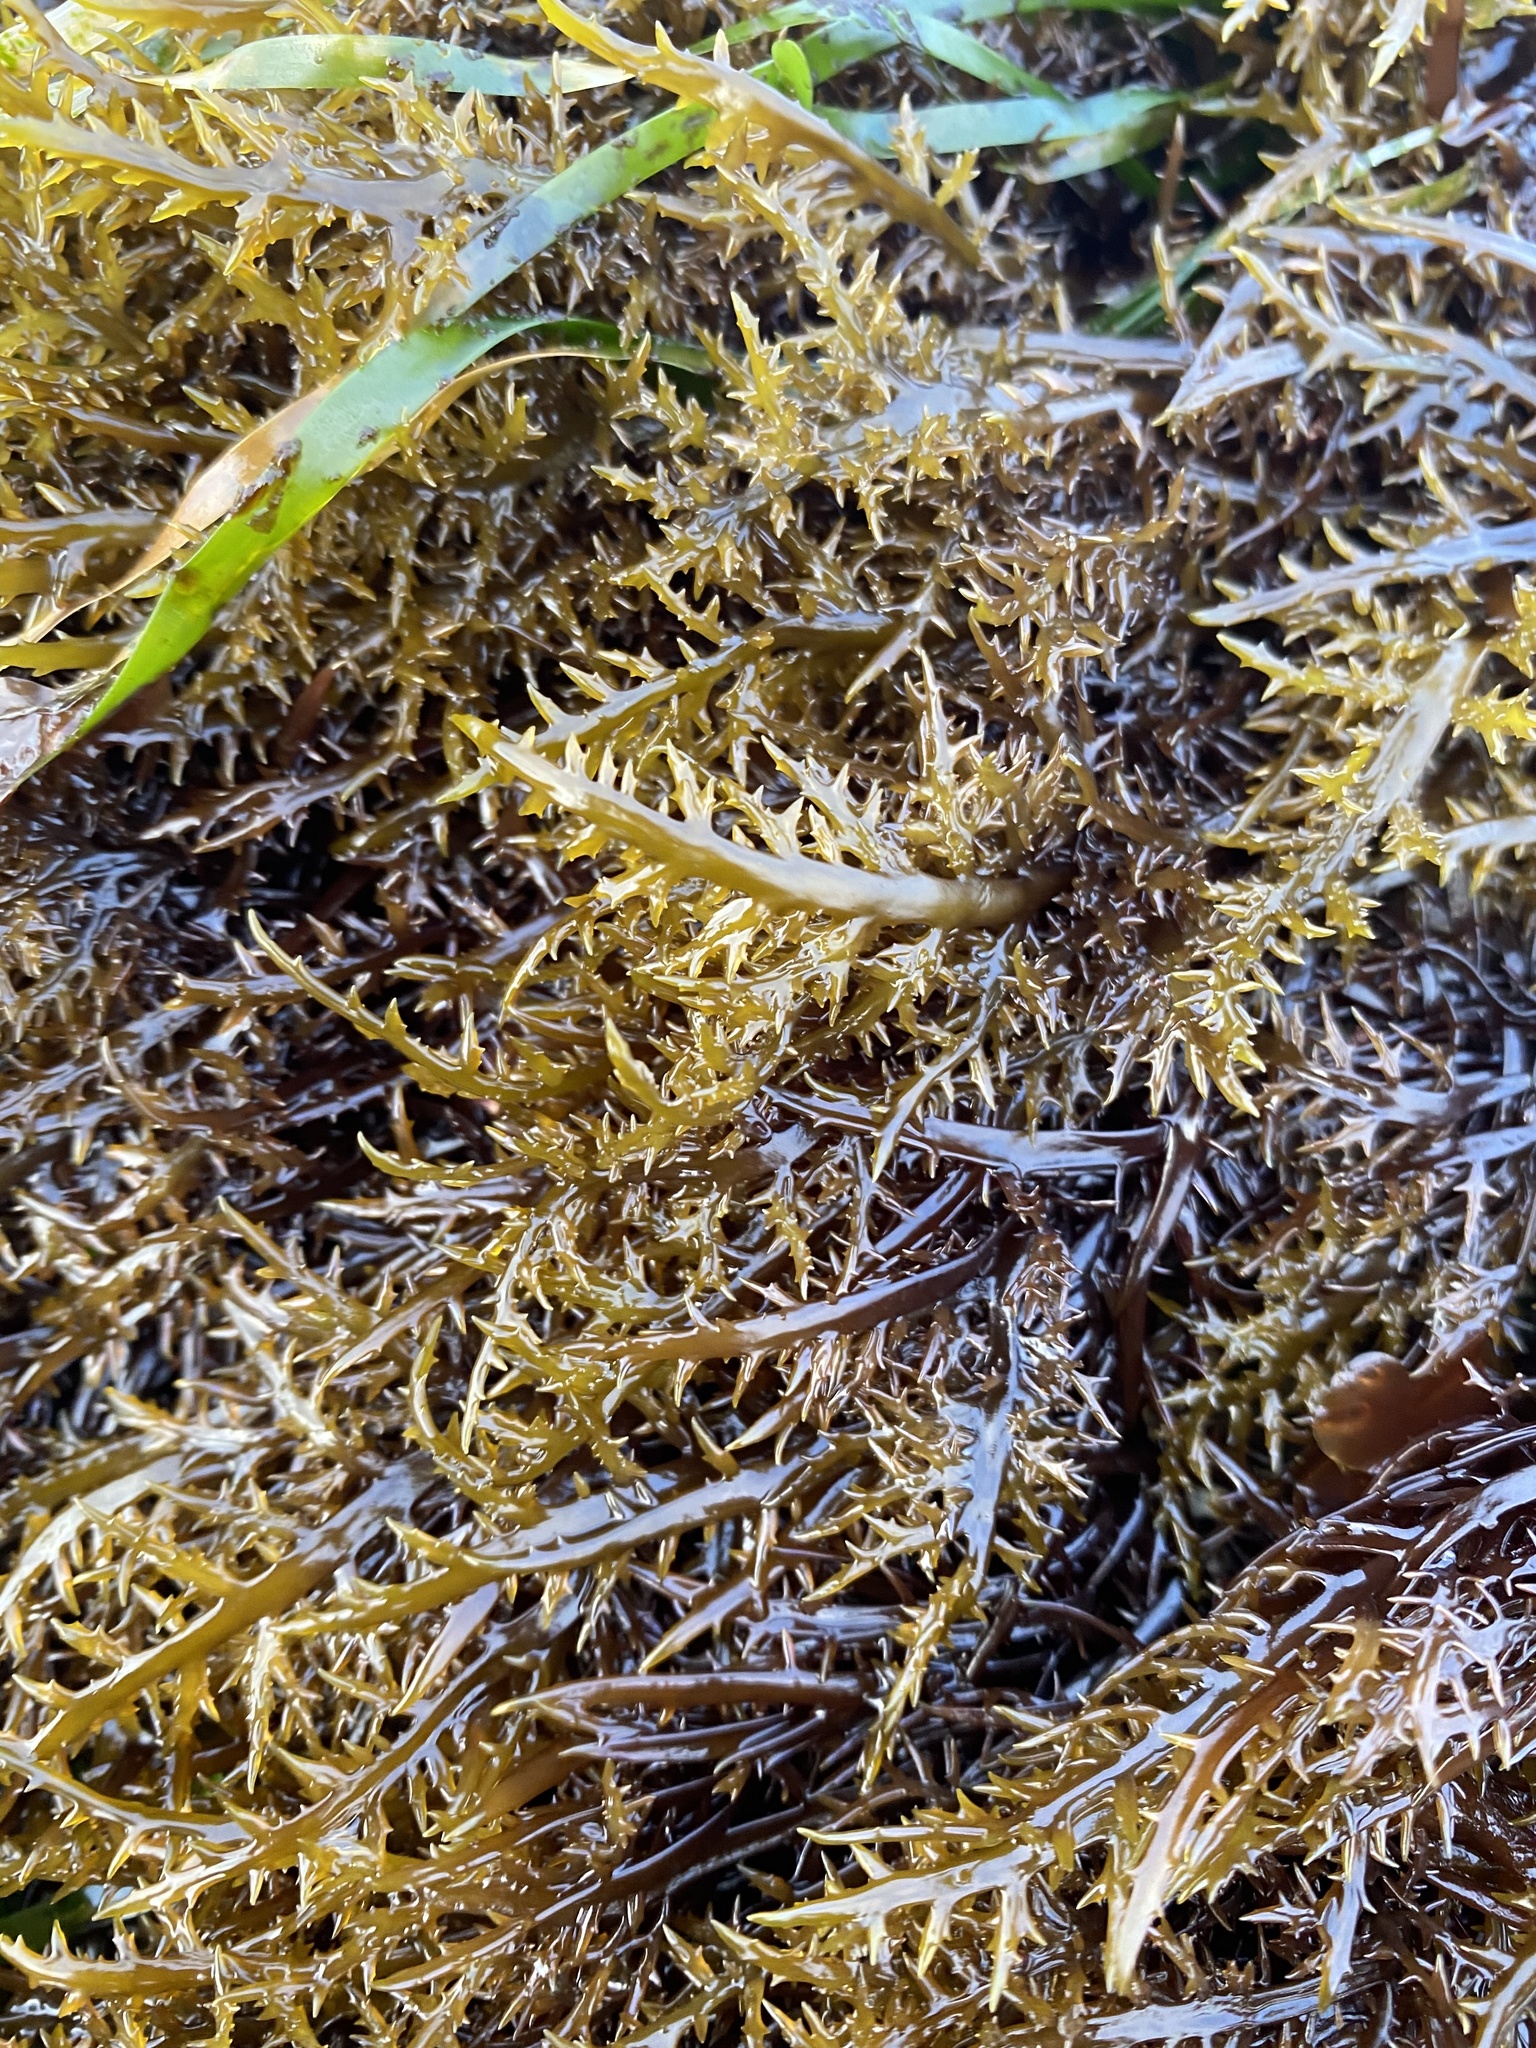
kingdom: Plantae
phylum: Rhodophyta
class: Florideophyceae
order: Gigartinales
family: Gigartinaceae
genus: Chondracanthus
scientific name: Chondracanthus canaliculatus
